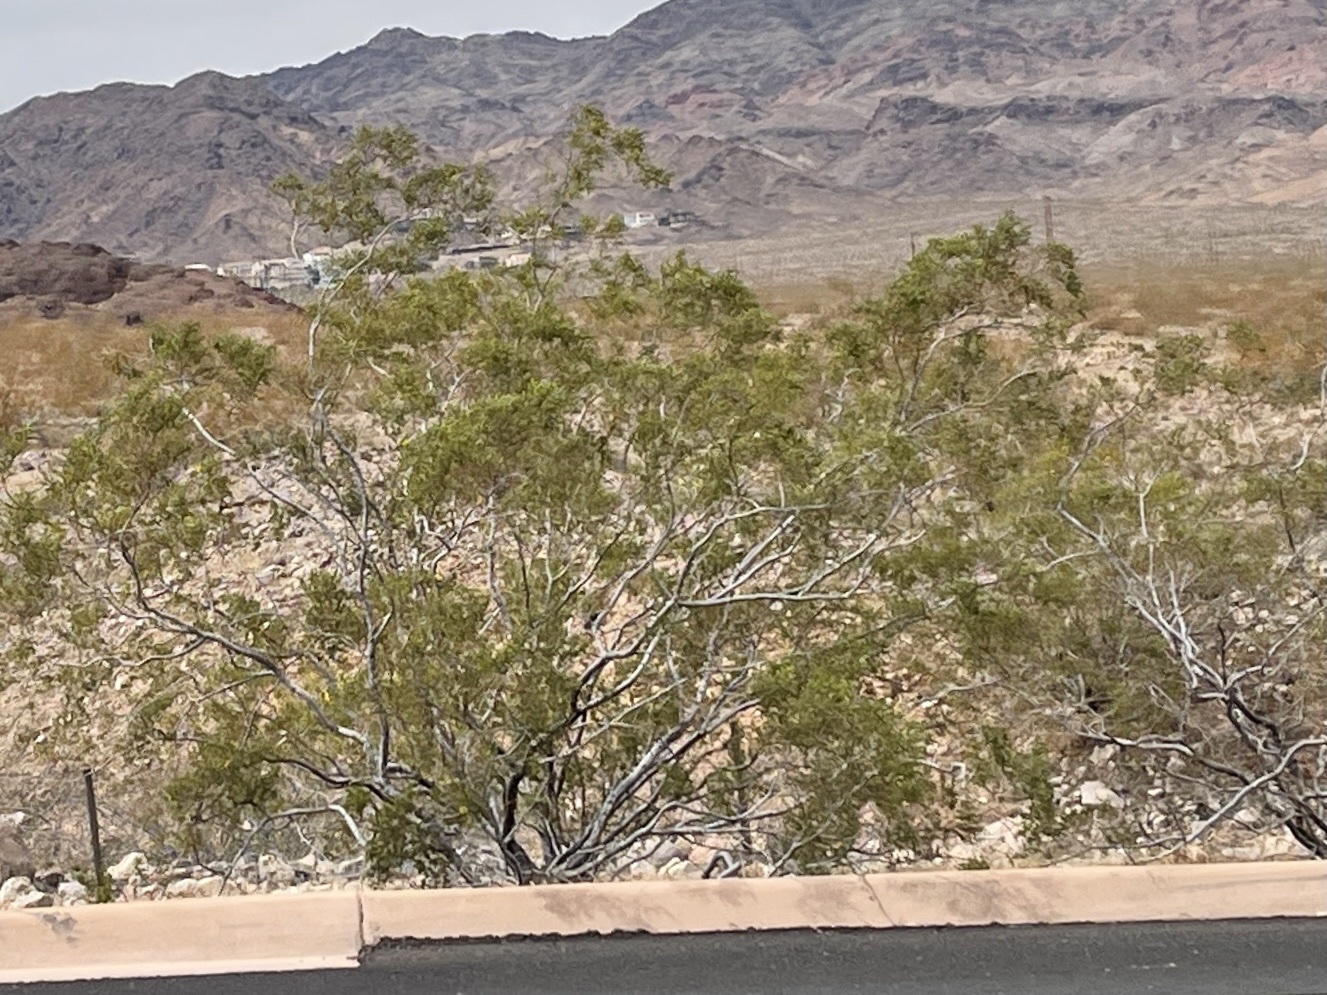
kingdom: Plantae
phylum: Tracheophyta
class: Magnoliopsida
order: Zygophyllales
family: Zygophyllaceae
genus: Larrea
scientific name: Larrea tridentata
